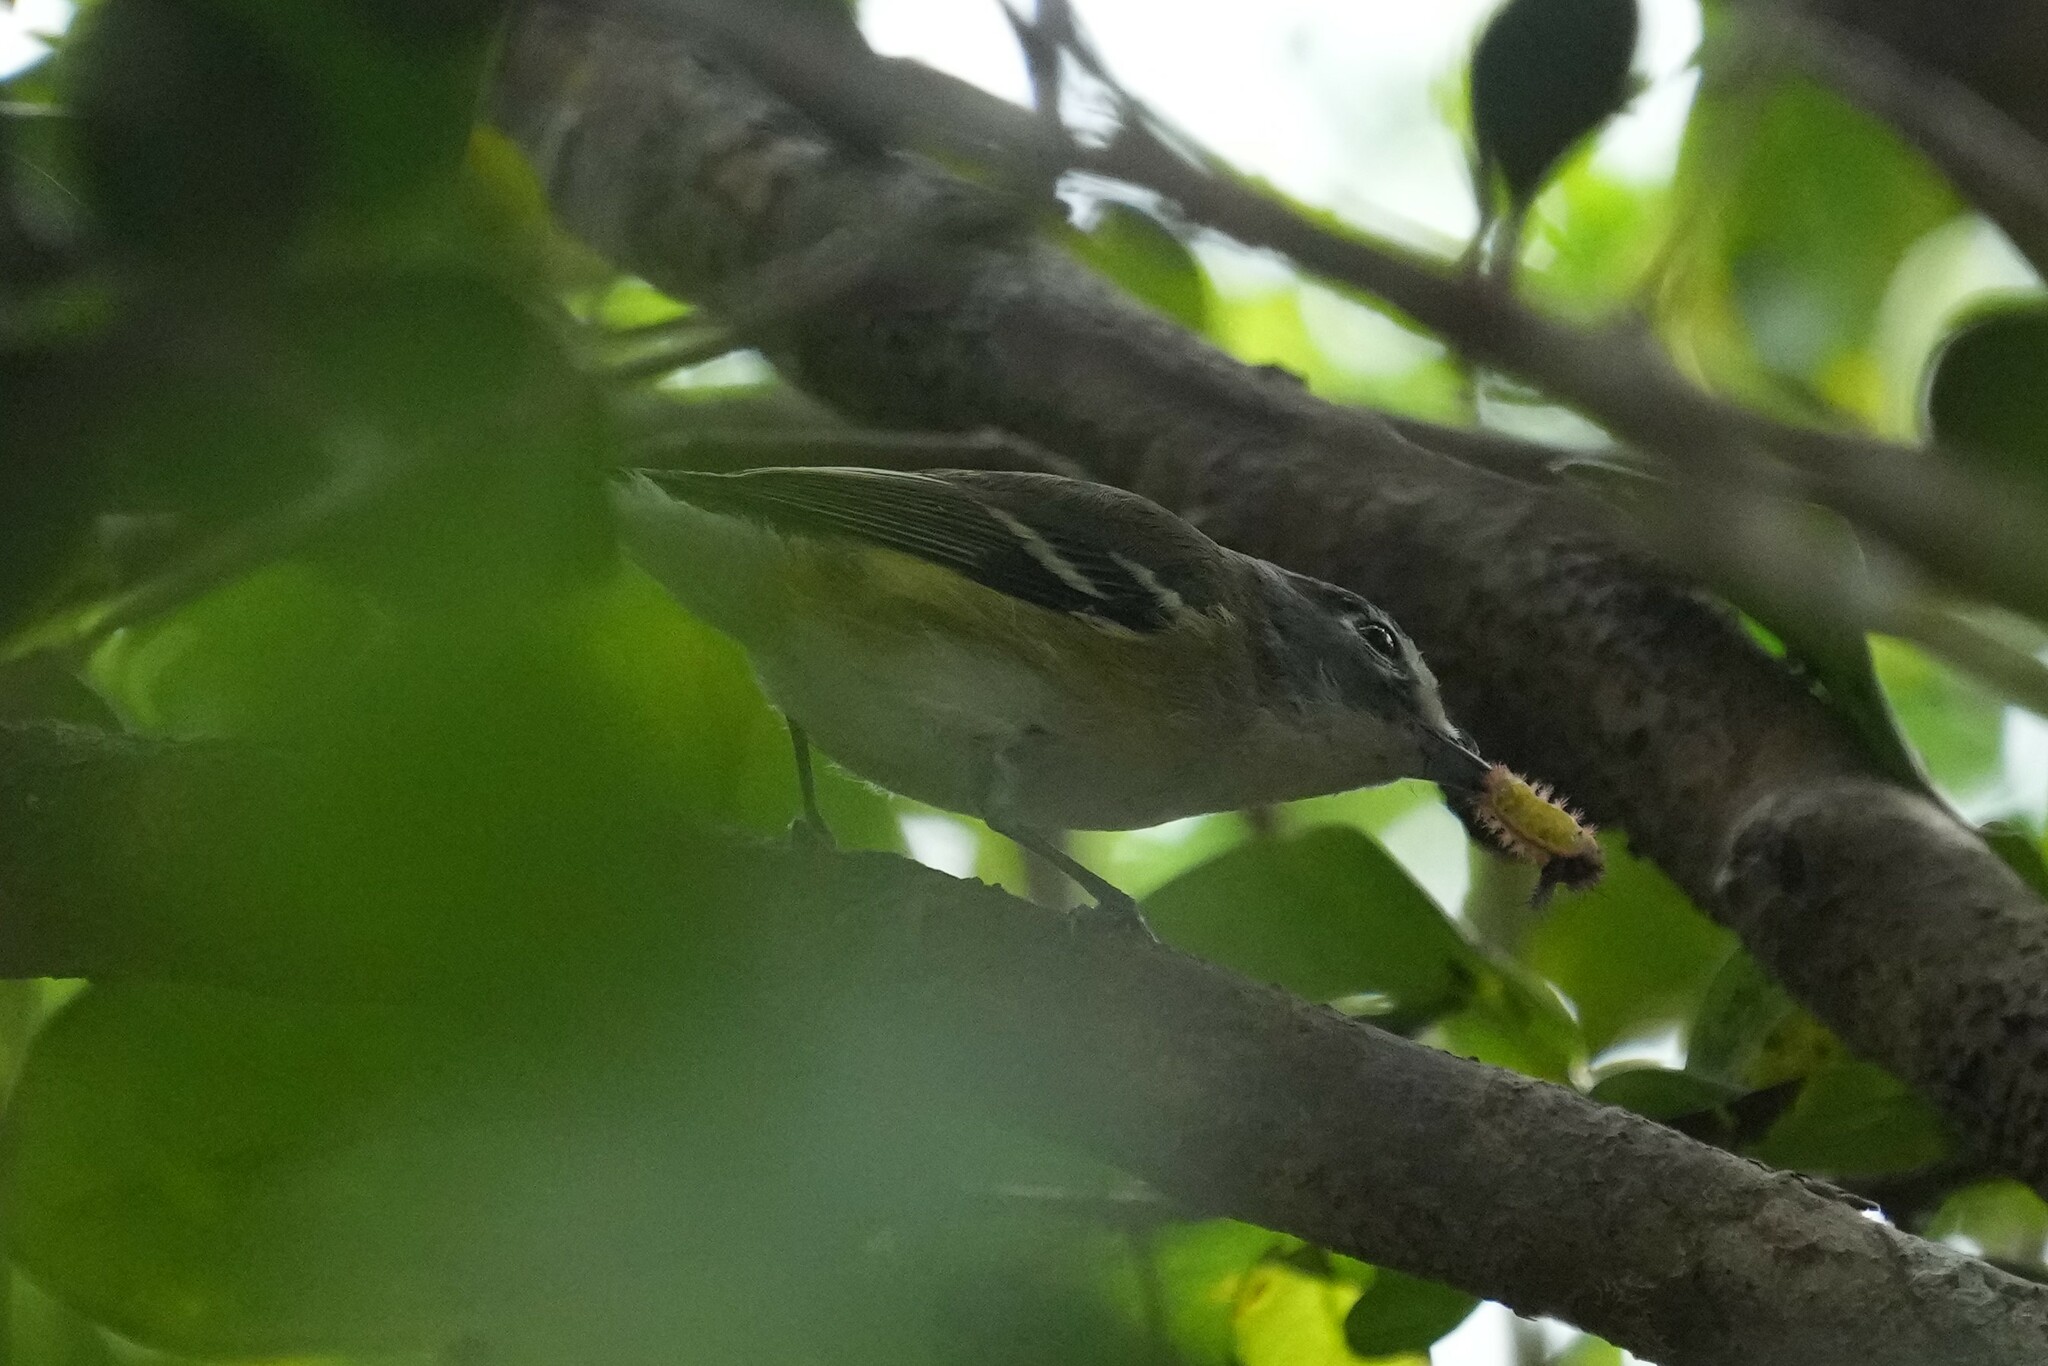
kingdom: Animalia
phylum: Chordata
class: Aves
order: Passeriformes
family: Vireonidae
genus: Vireo
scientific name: Vireo solitarius
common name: Blue-headed vireo
